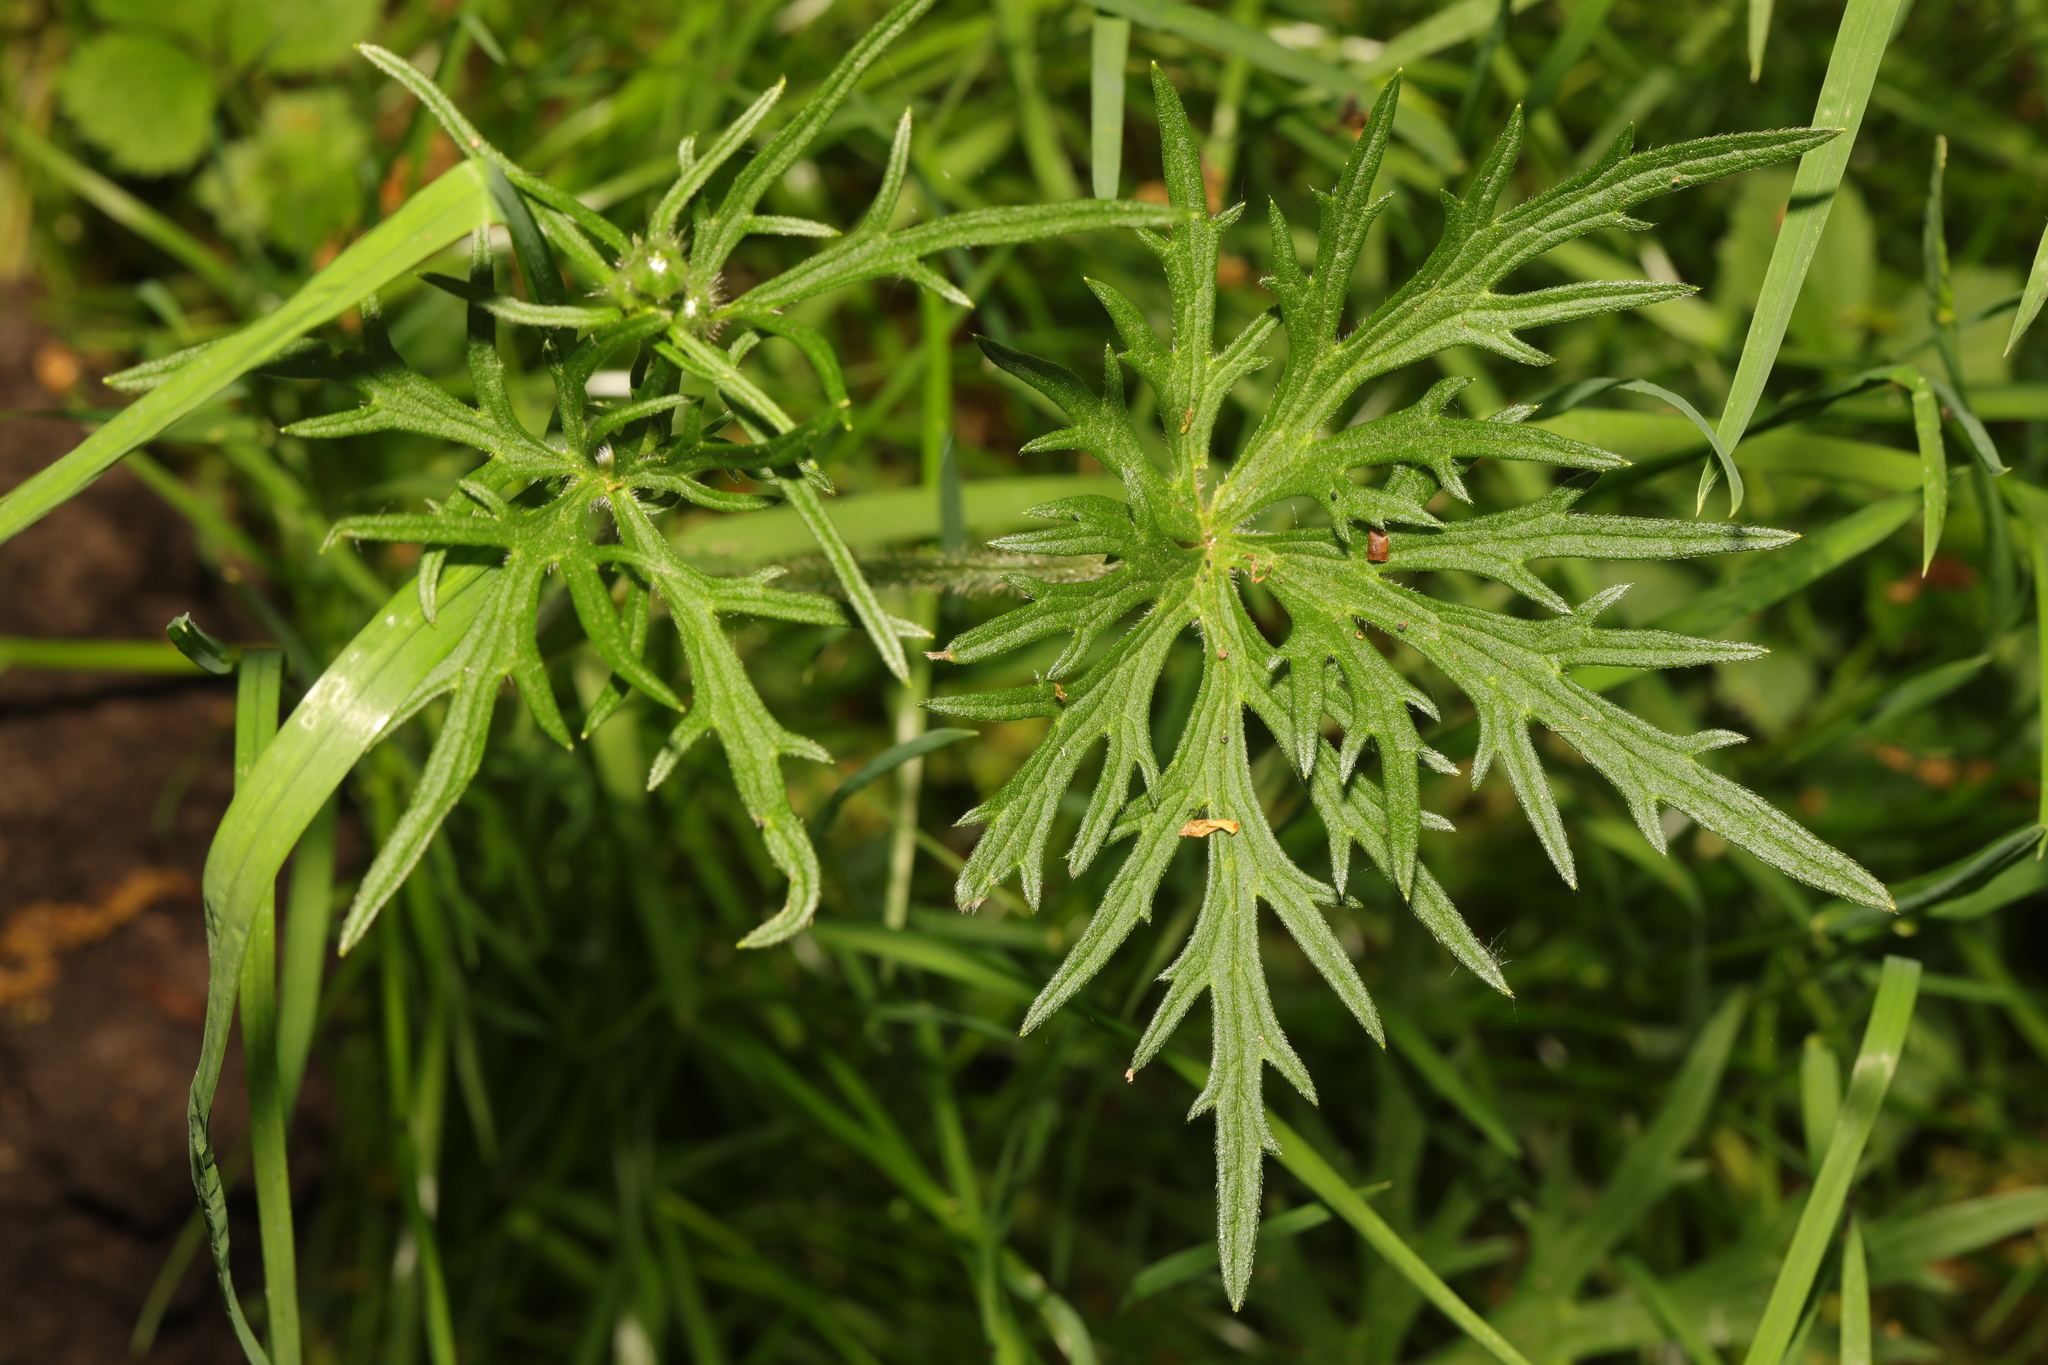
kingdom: Plantae
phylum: Tracheophyta
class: Magnoliopsida
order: Ranunculales
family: Ranunculaceae
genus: Ranunculus
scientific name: Ranunculus acris
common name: Meadow buttercup
